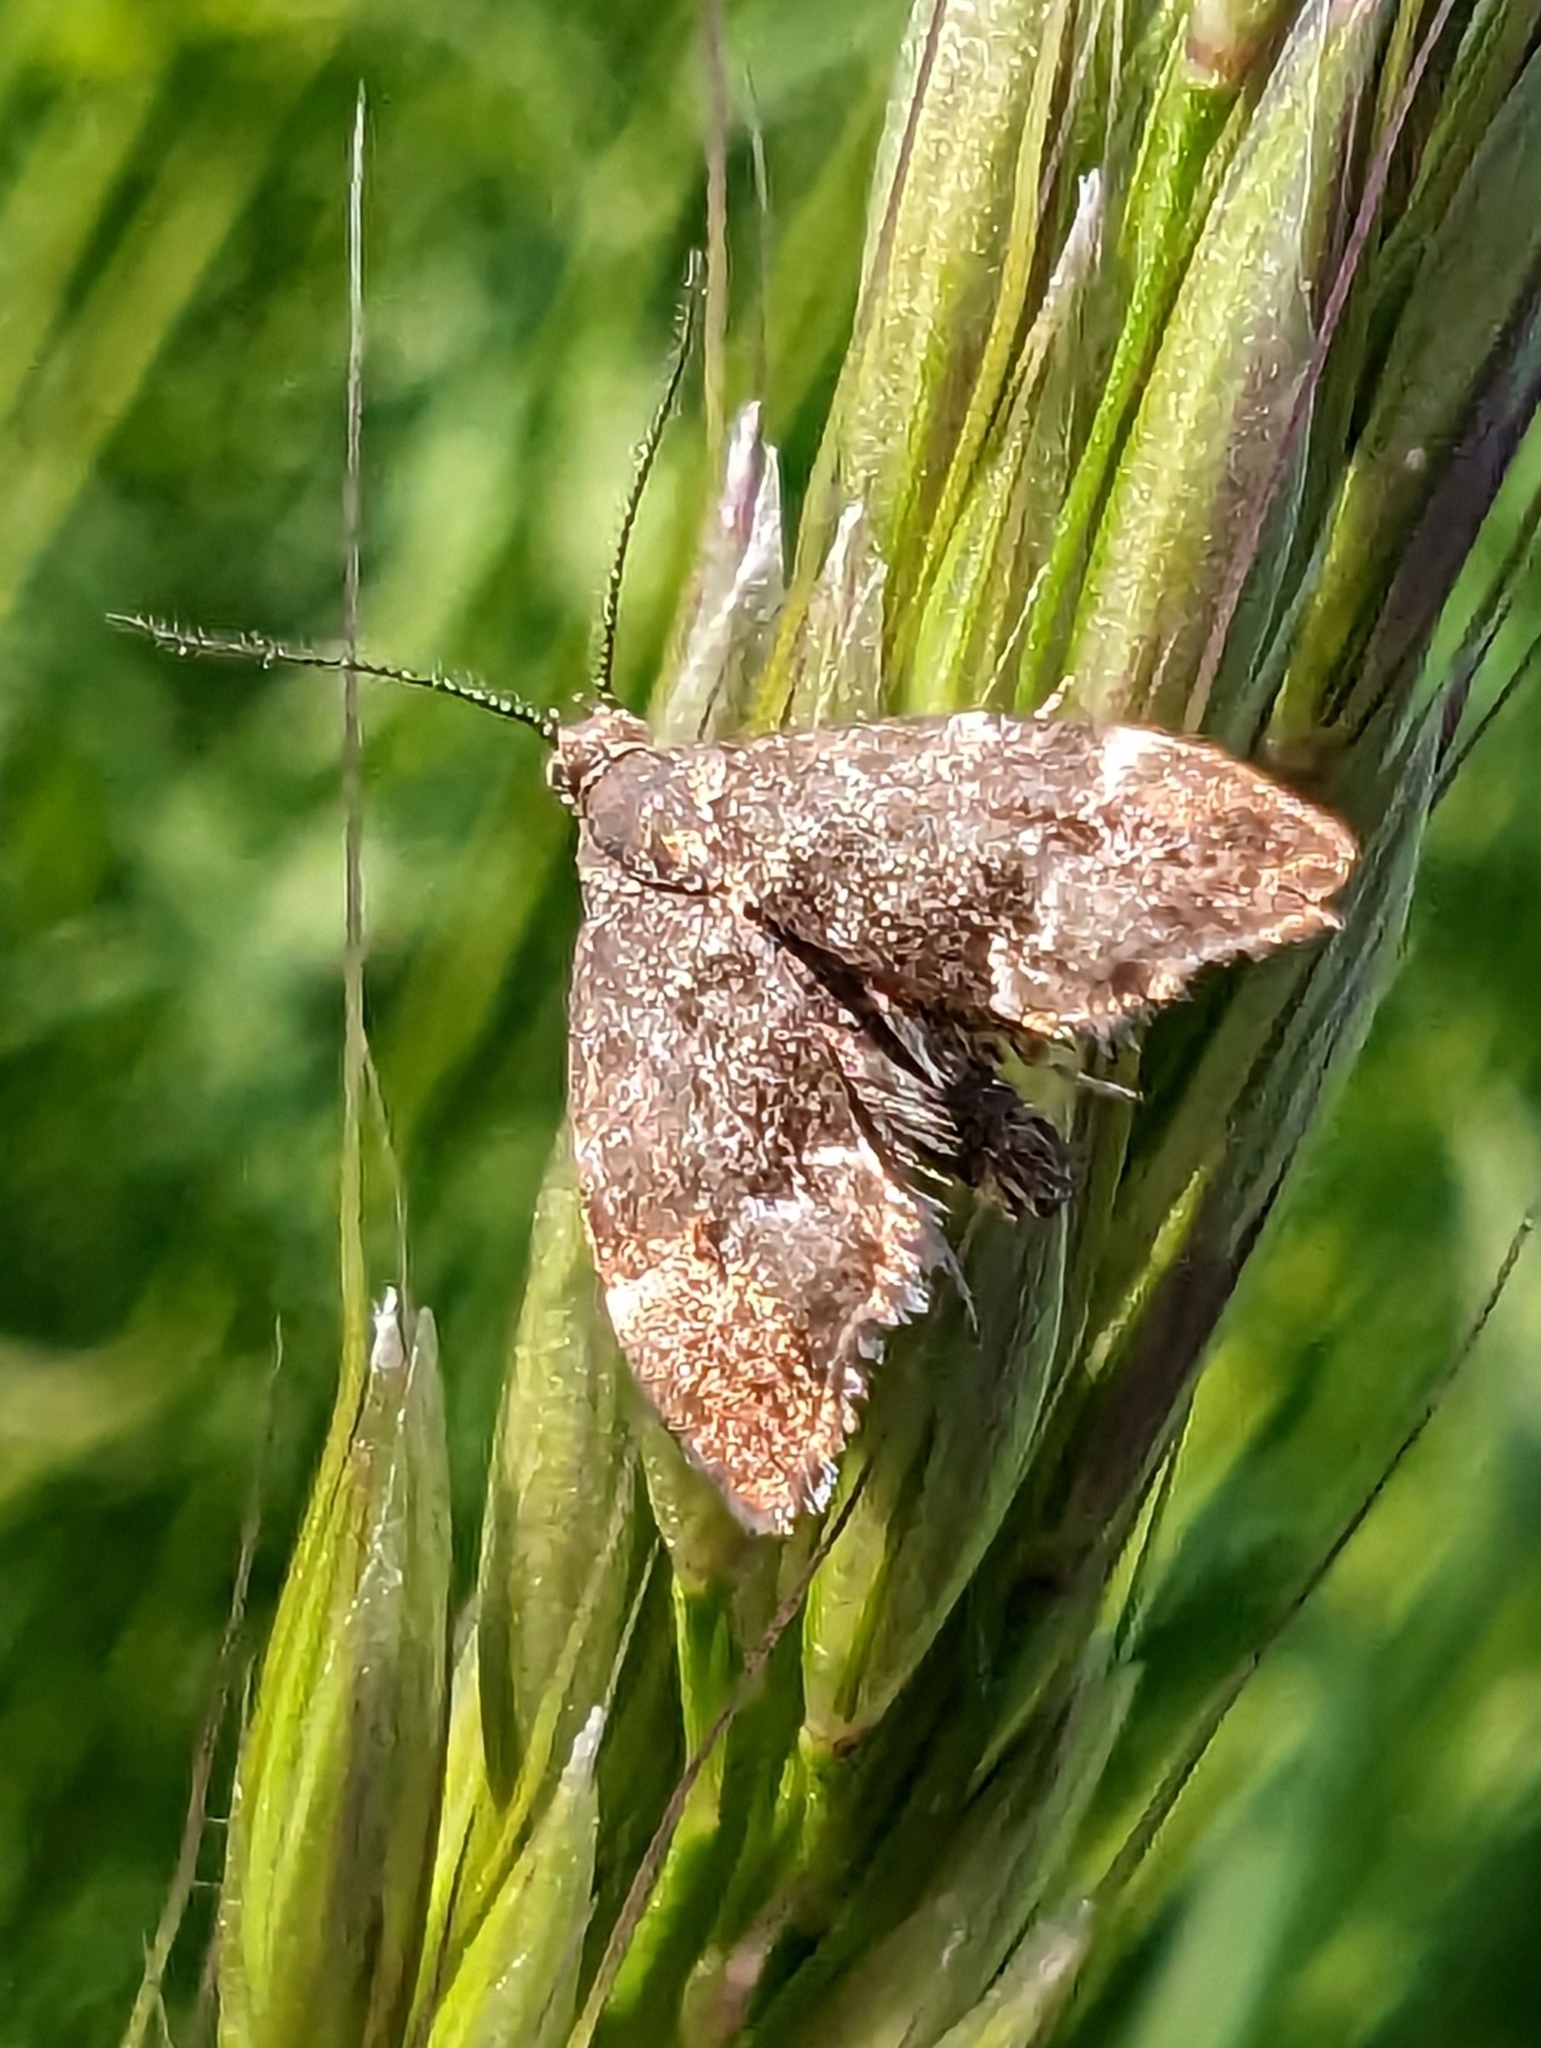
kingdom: Animalia
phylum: Arthropoda
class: Insecta
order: Lepidoptera
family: Choreutidae
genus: Anthophila
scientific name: Anthophila fabriciana
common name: Nettle-tap
